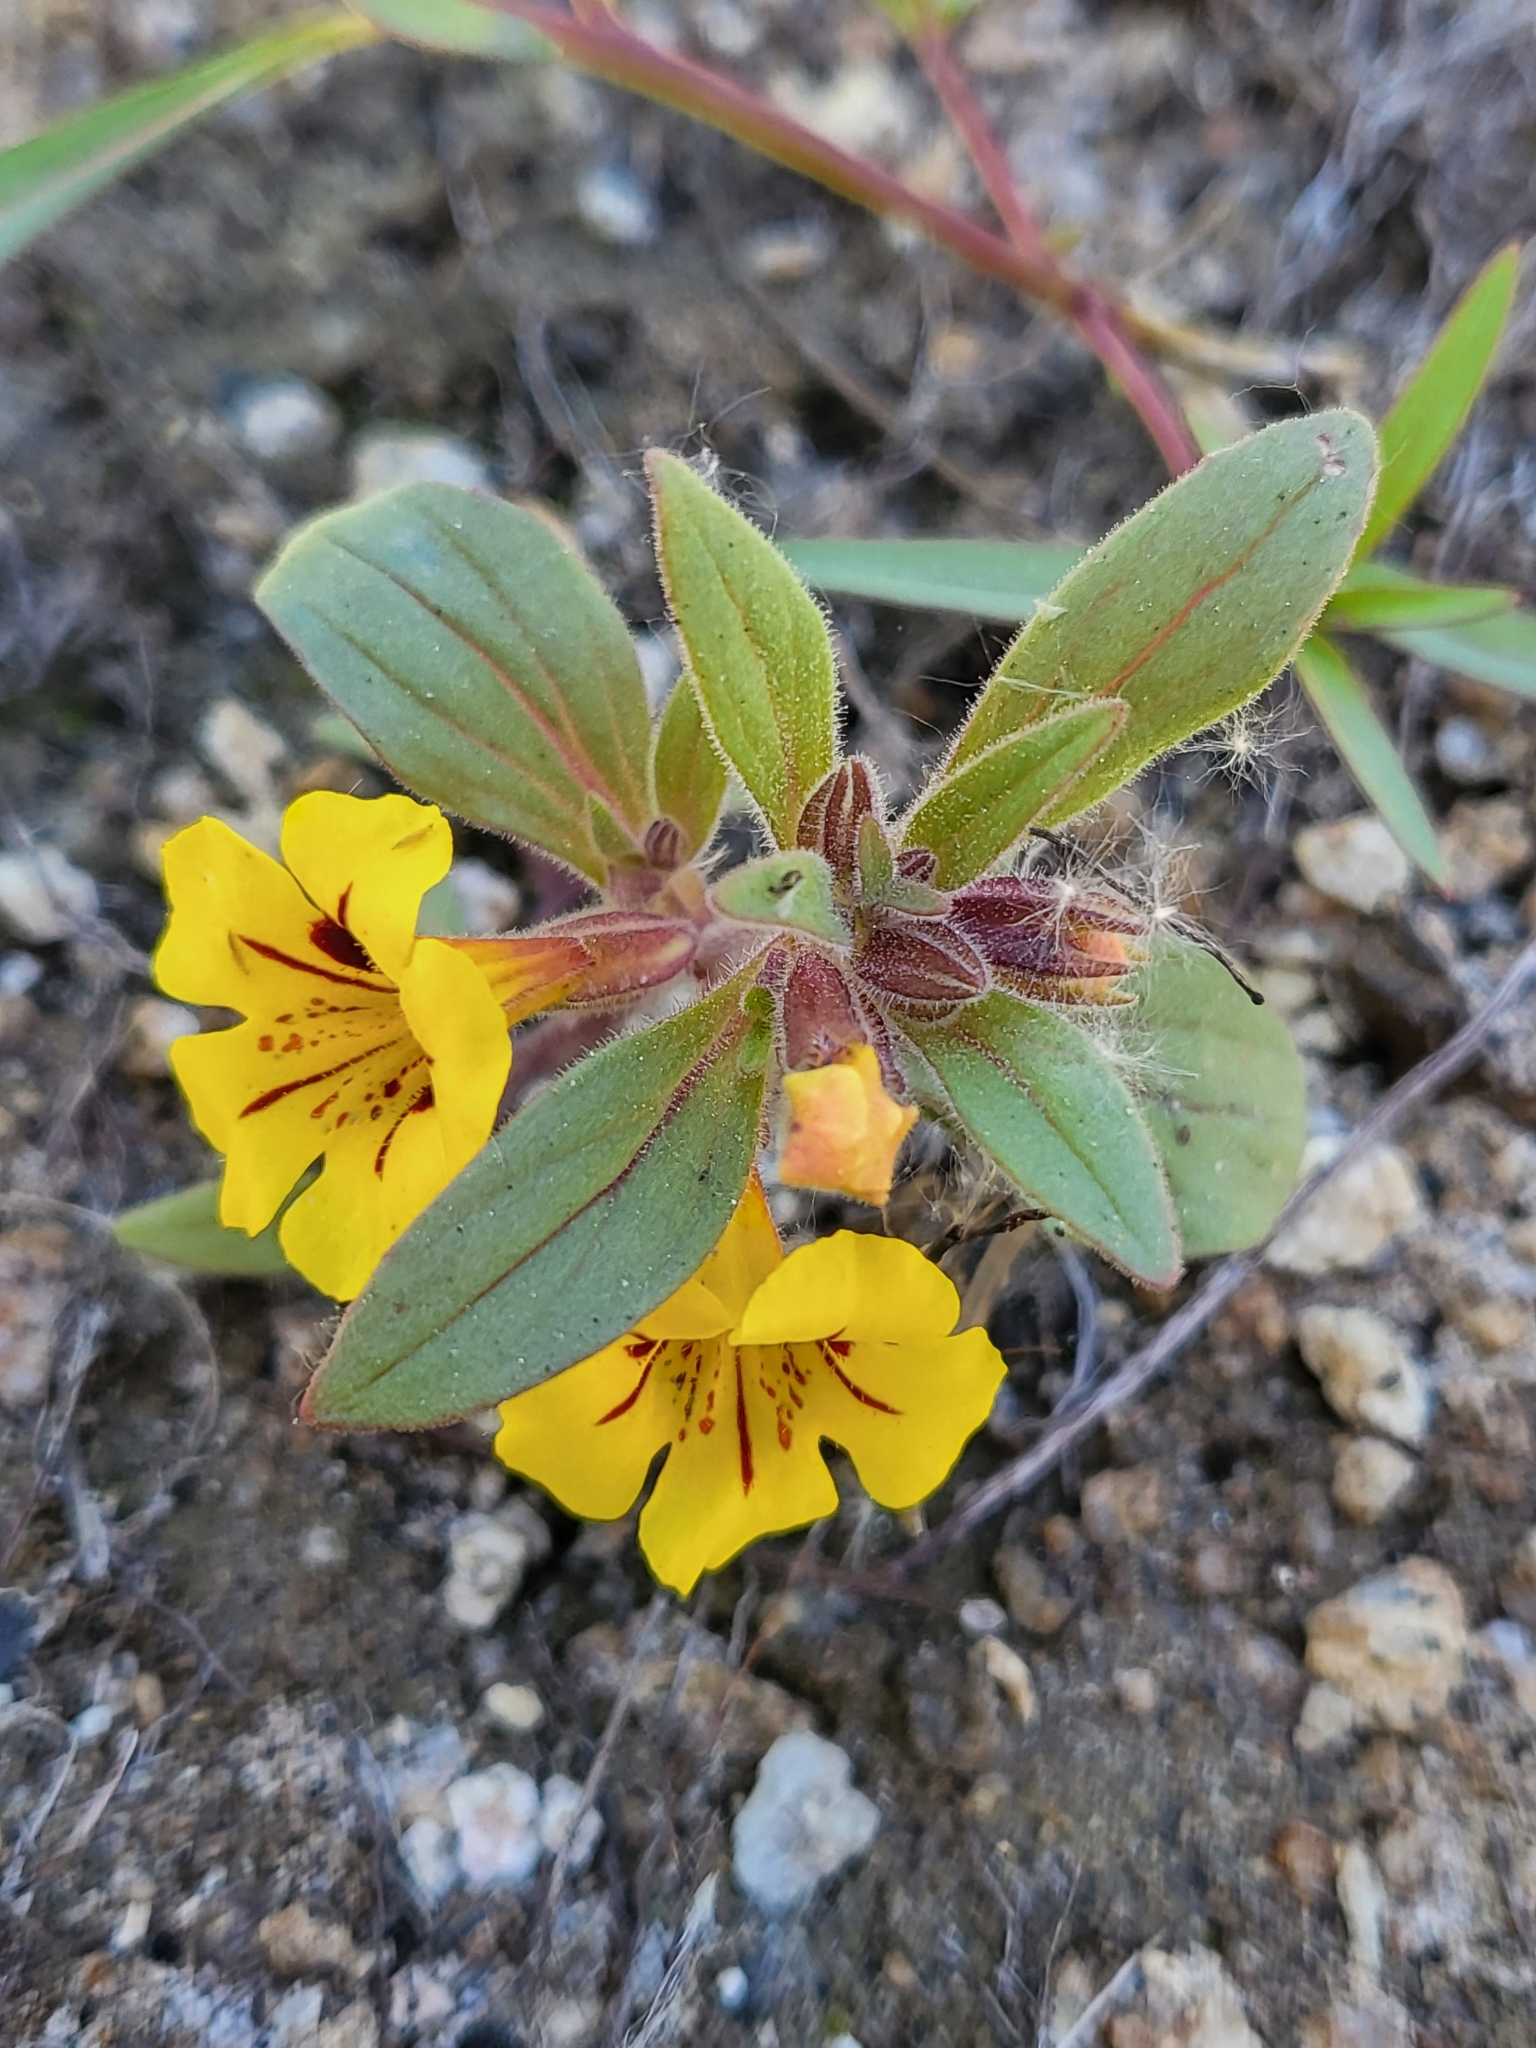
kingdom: Plantae
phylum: Tracheophyta
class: Magnoliopsida
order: Lamiales
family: Phrymaceae
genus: Diplacus
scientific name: Diplacus bicolor
